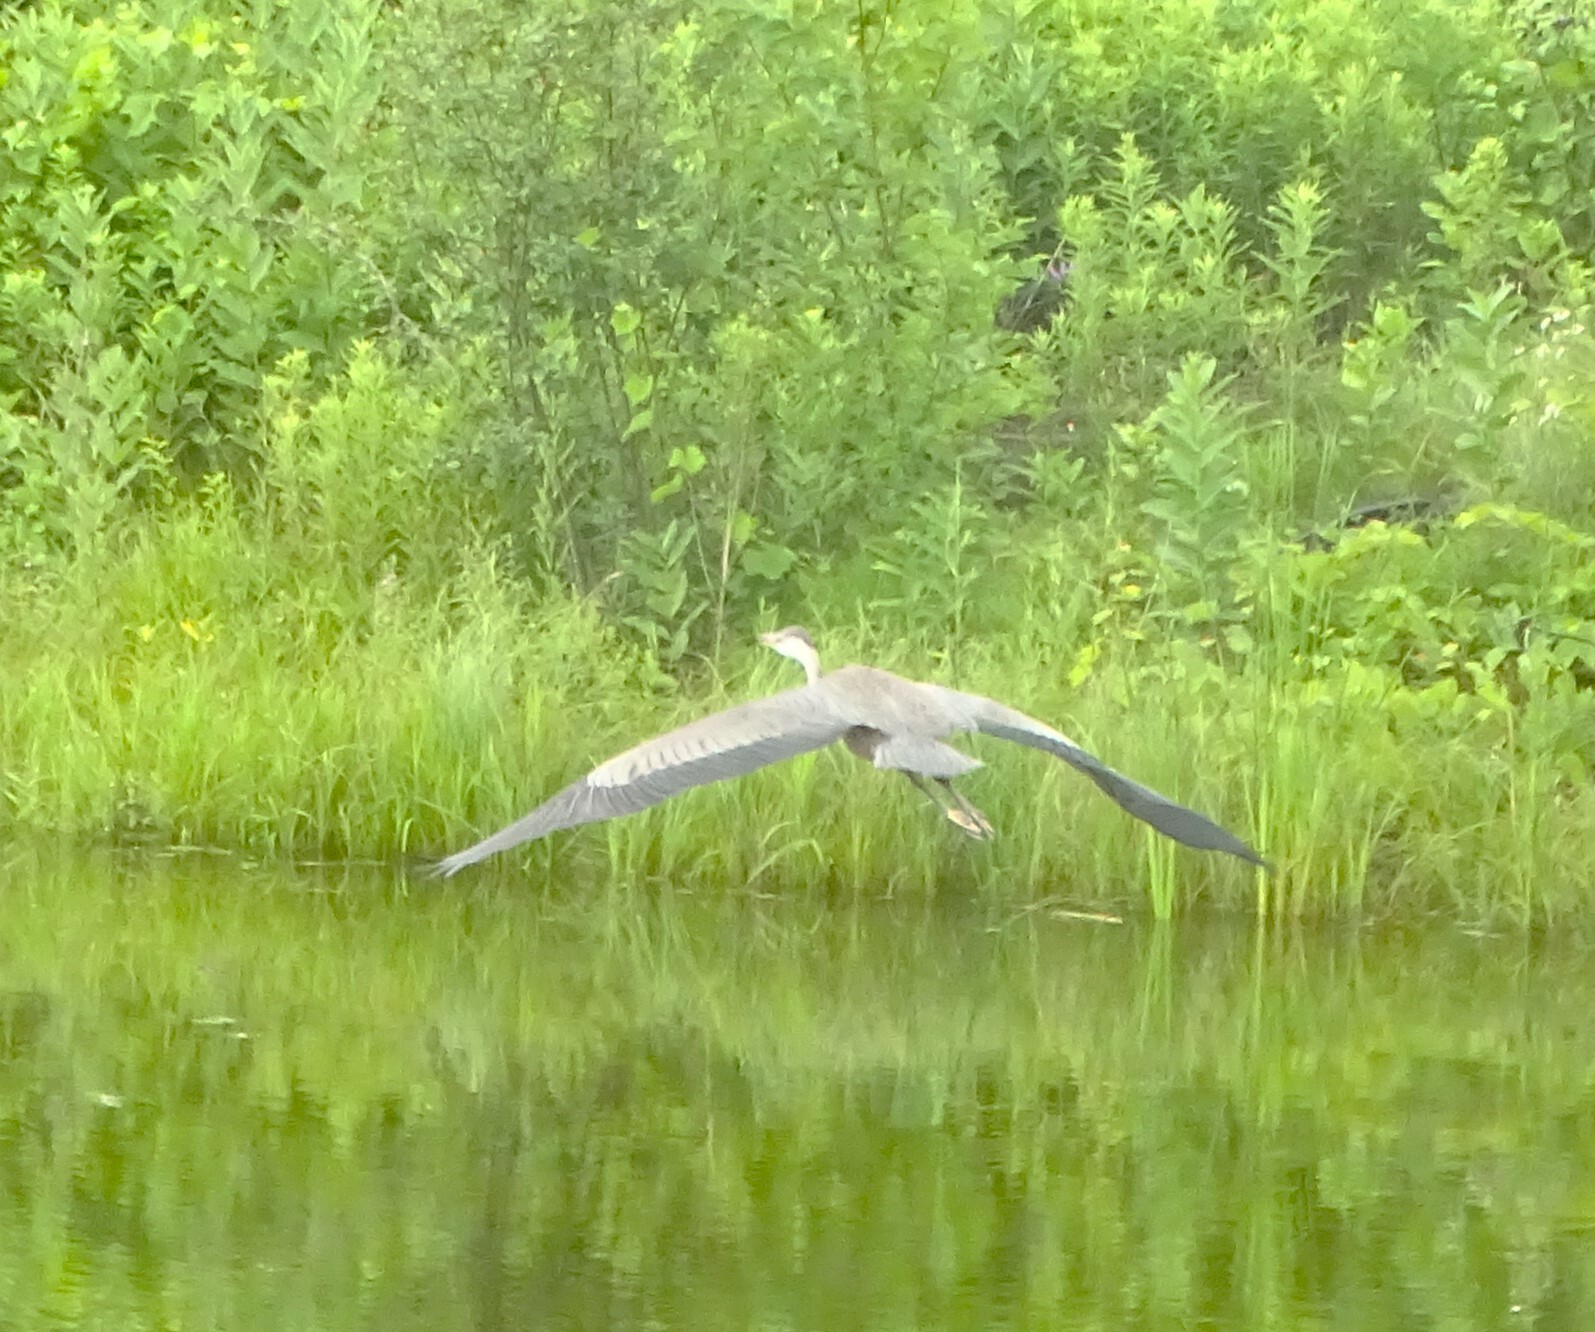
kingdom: Animalia
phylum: Chordata
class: Aves
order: Pelecaniformes
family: Ardeidae
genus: Ardea
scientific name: Ardea herodias
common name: Great blue heron
